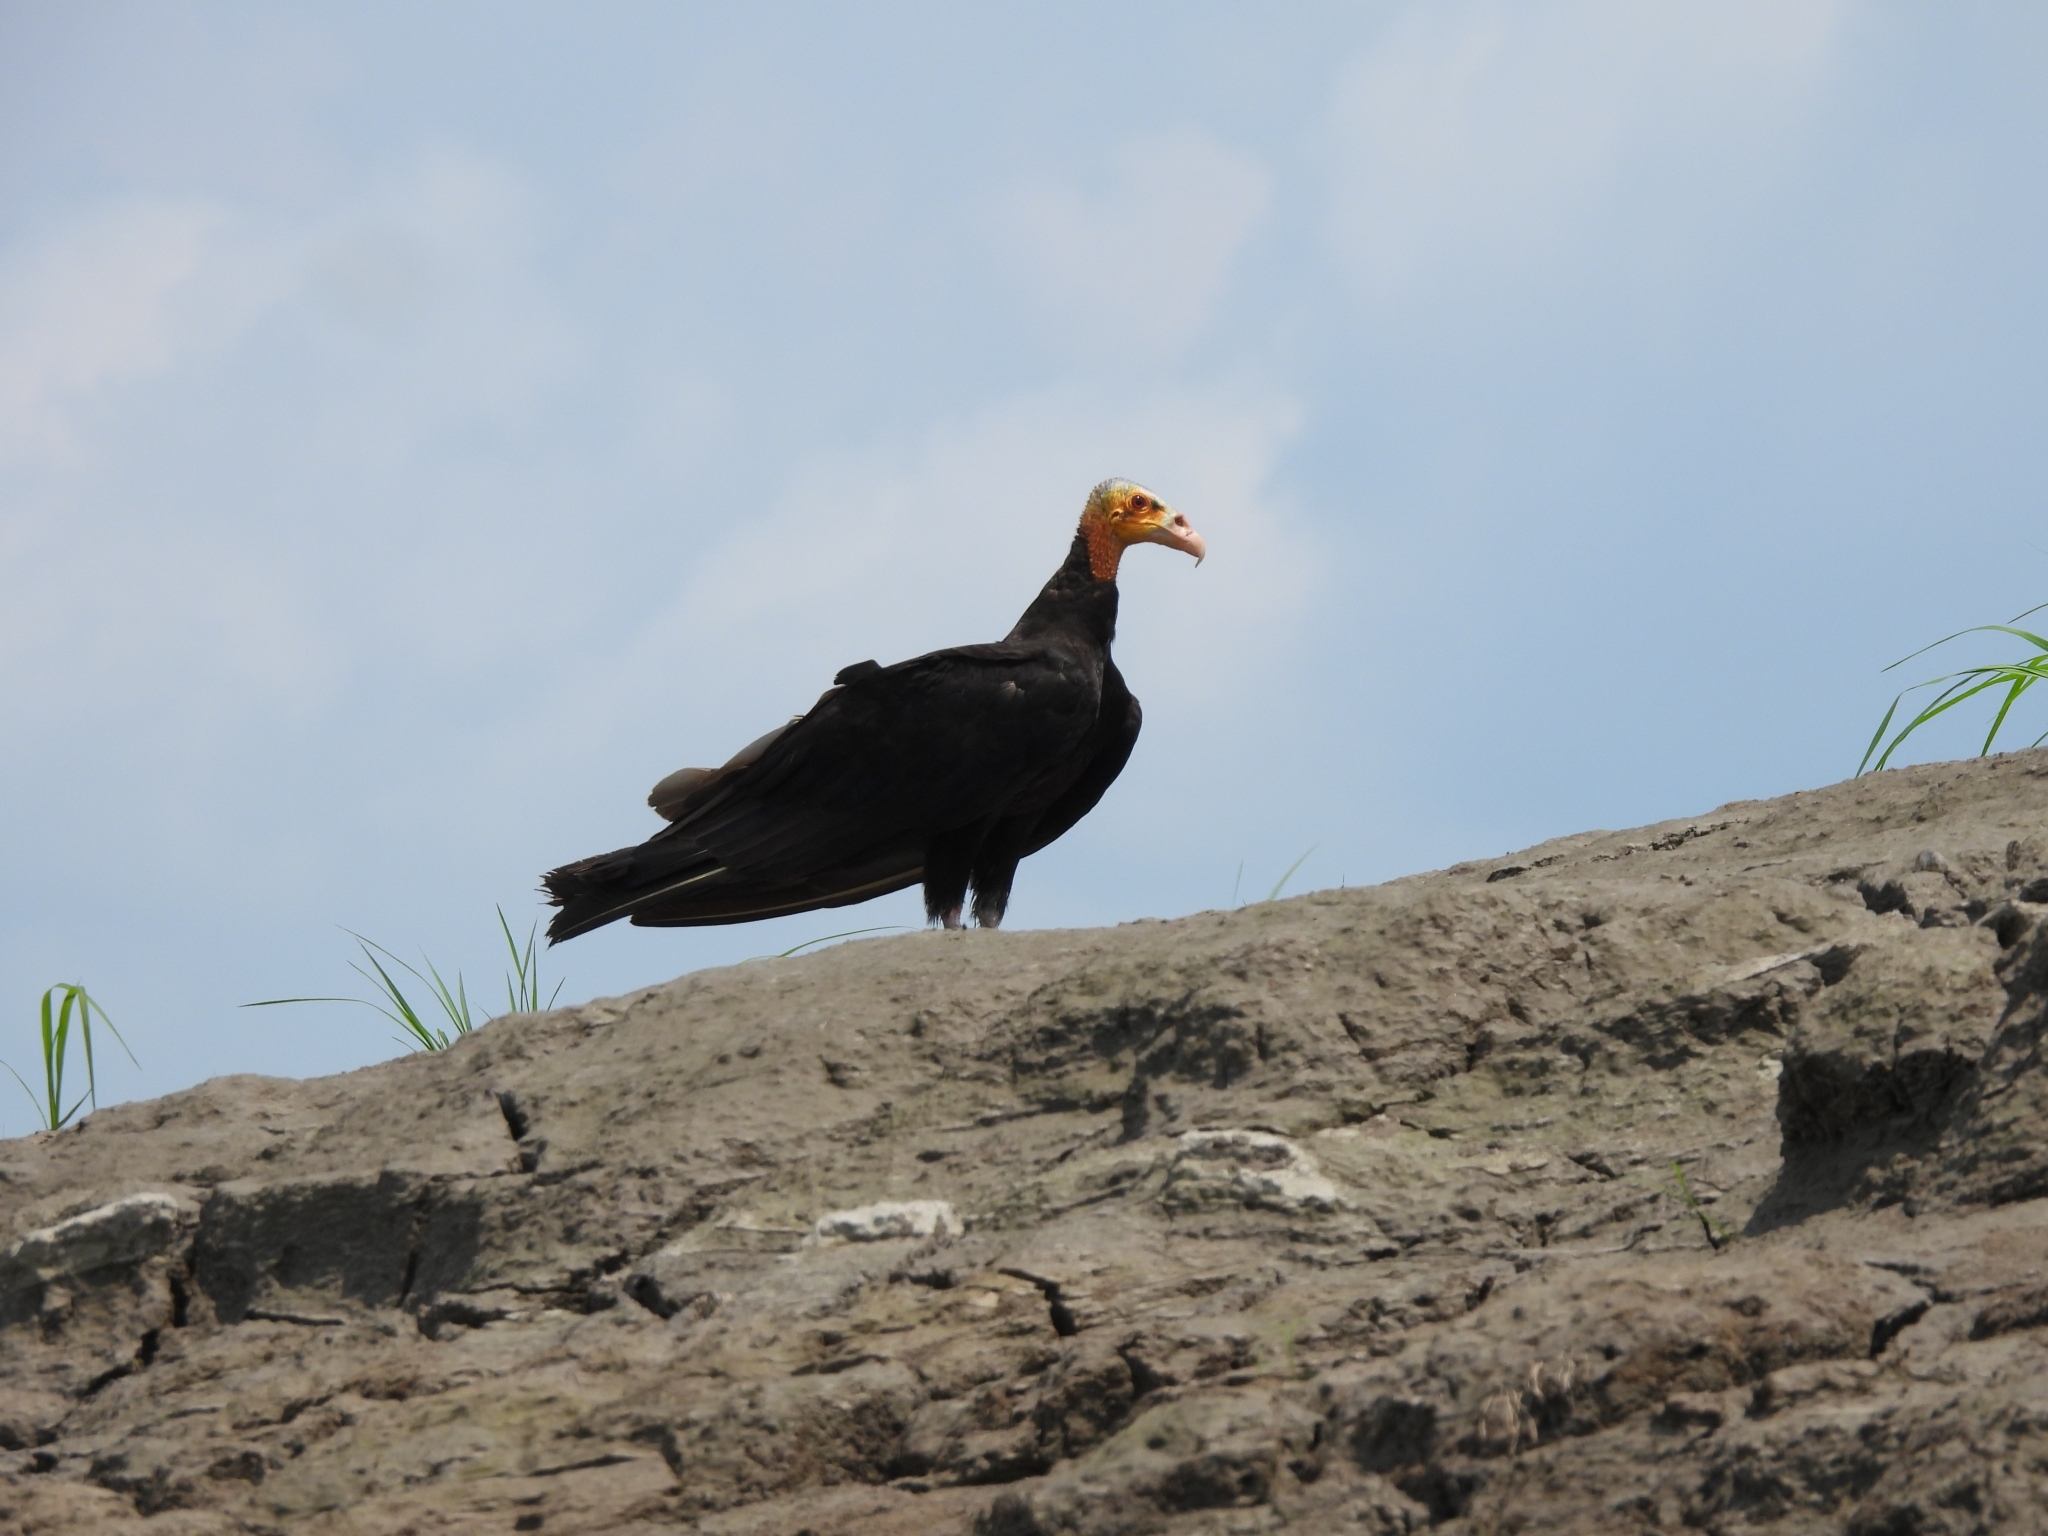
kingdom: Animalia
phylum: Chordata
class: Aves
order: Accipitriformes
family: Cathartidae
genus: Cathartes
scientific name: Cathartes melambrotus
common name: Greater yellow-headed vulture
